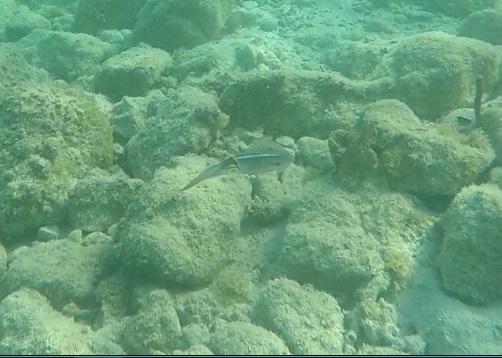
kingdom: Animalia
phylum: Mollusca
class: Cephalopoda
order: Myopsida
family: Loliginidae
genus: Sepioteuthis
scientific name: Sepioteuthis sepioidea
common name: Caribbean reef squid
